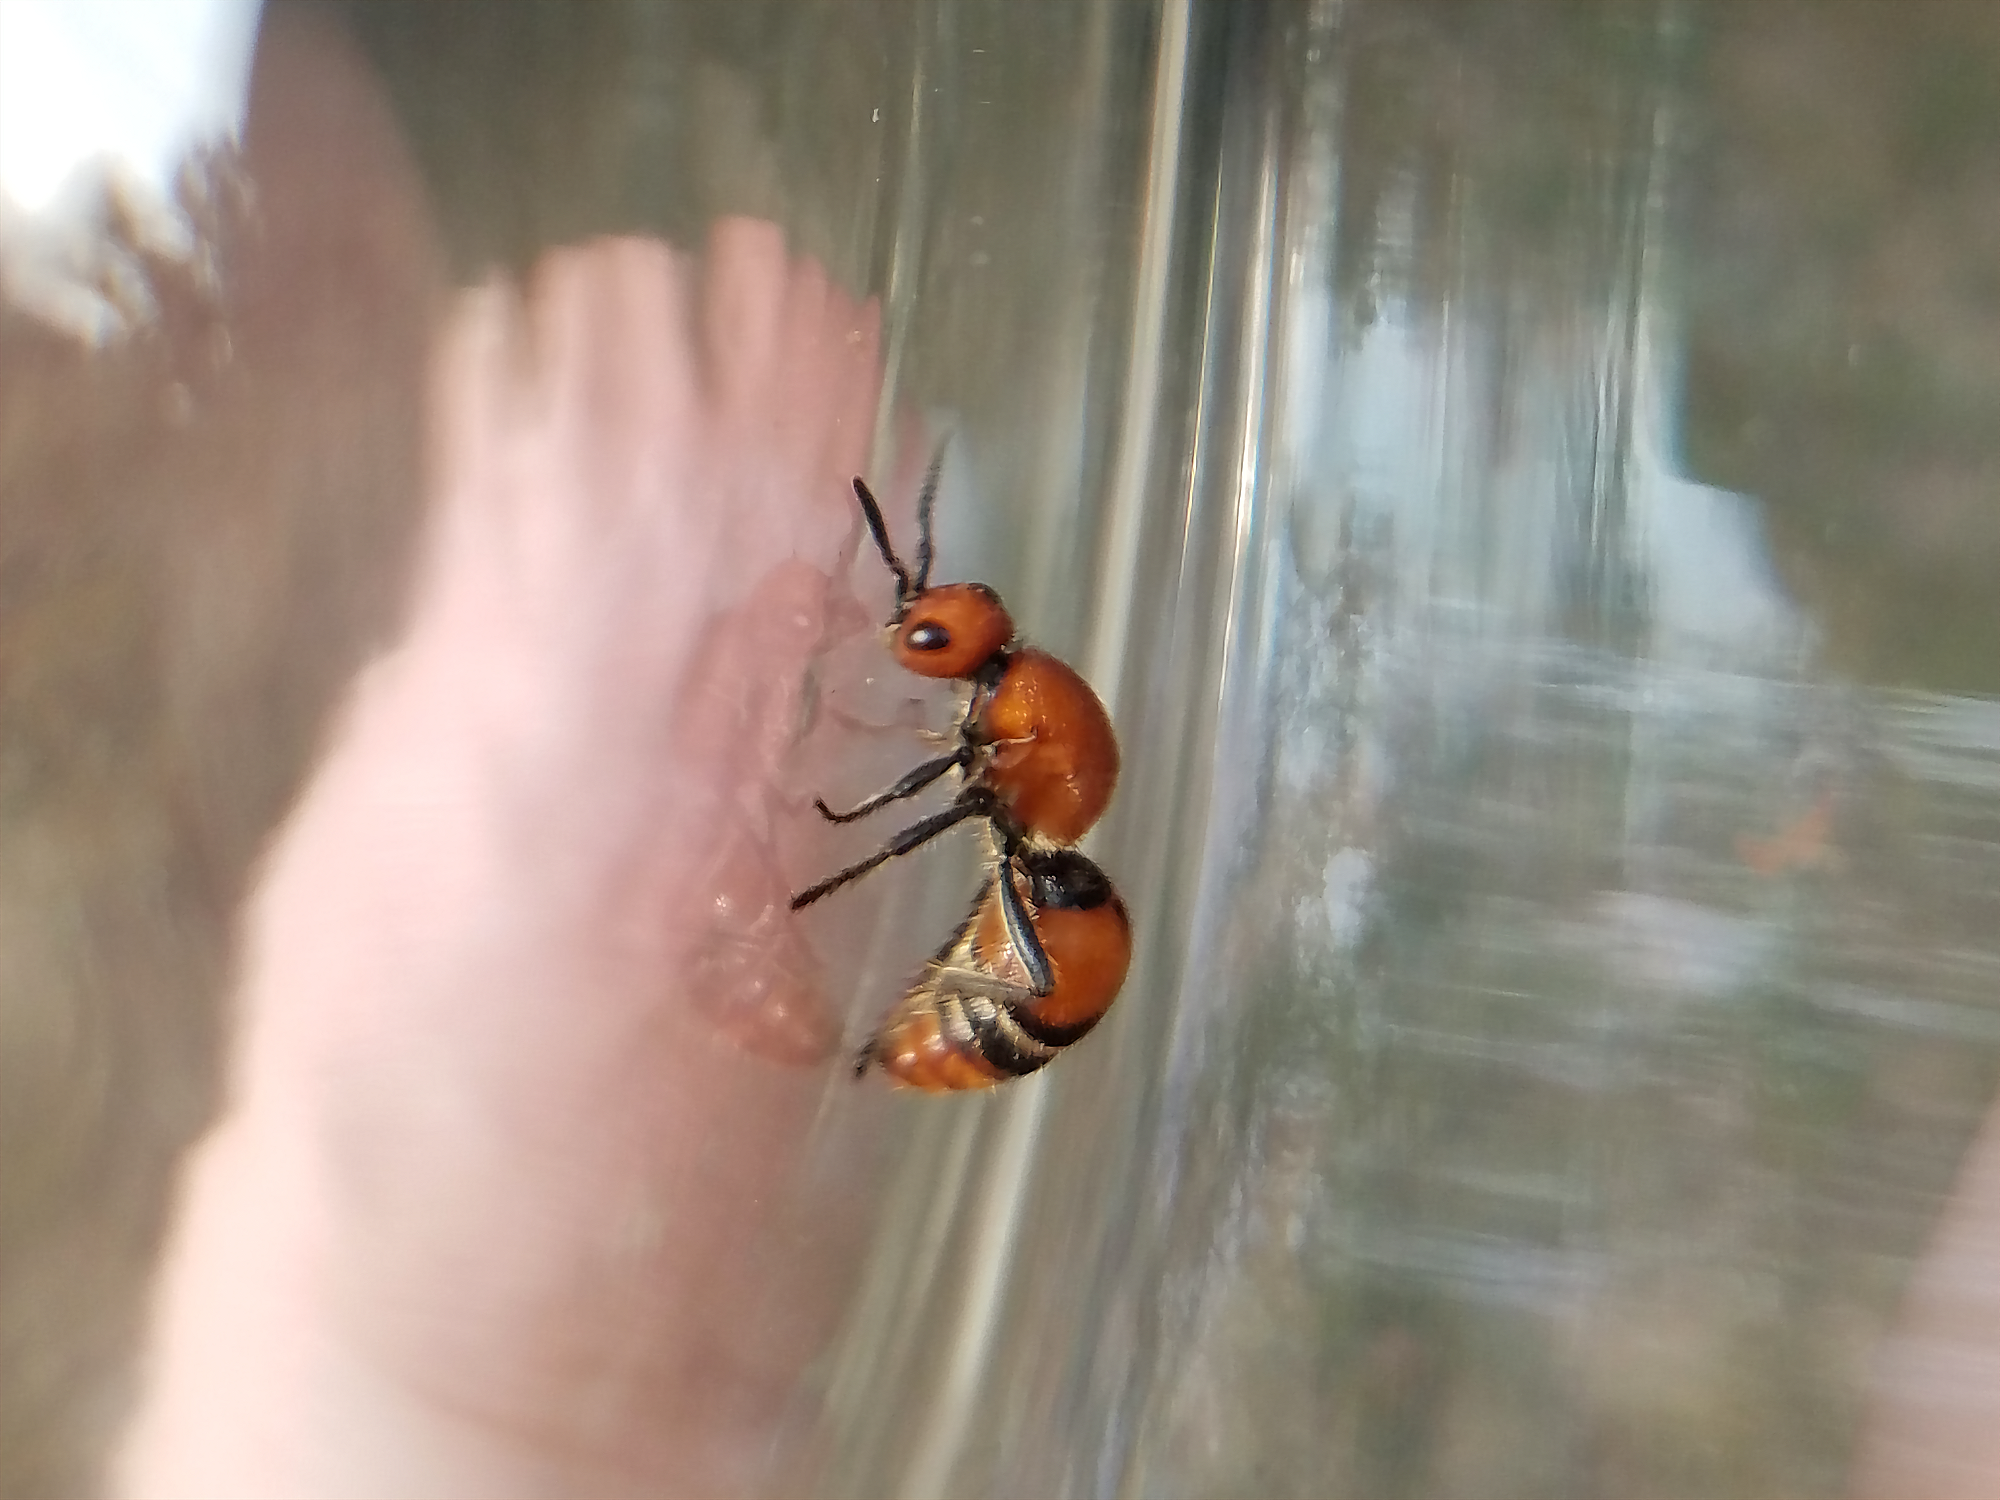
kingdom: Animalia
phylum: Arthropoda
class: Insecta
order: Hymenoptera
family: Mutillidae
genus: Timulla
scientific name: Timulla
